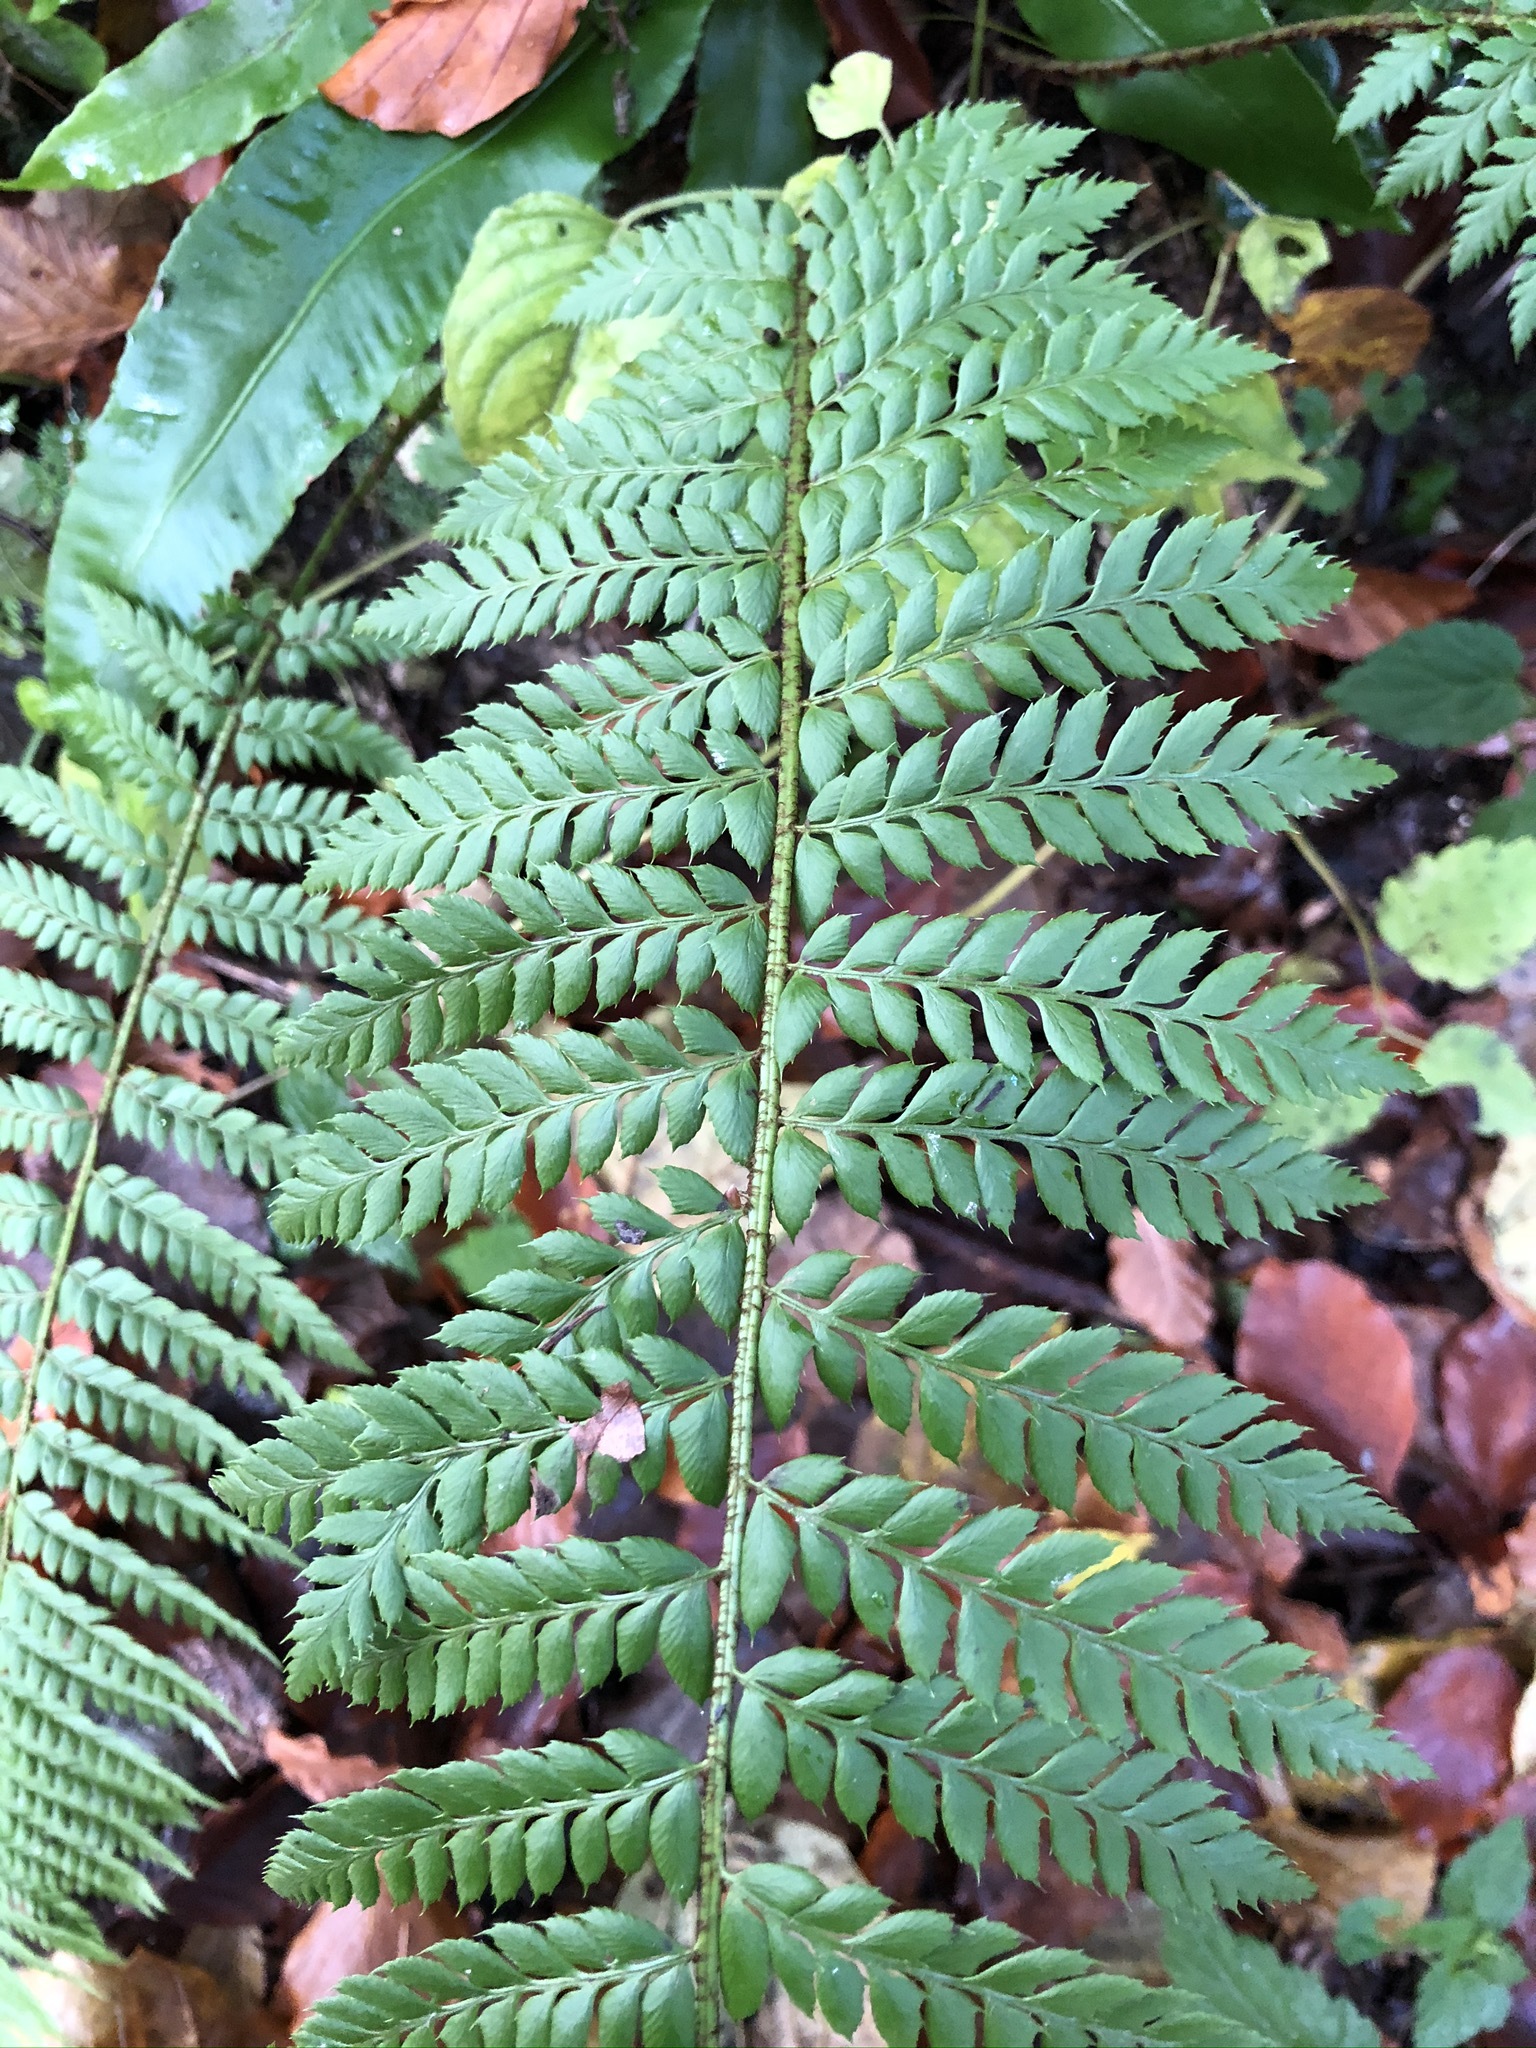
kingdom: Plantae
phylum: Tracheophyta
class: Polypodiopsida
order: Polypodiales
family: Dryopteridaceae
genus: Polystichum
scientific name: Polystichum aculeatum
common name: Hard shield-fern
